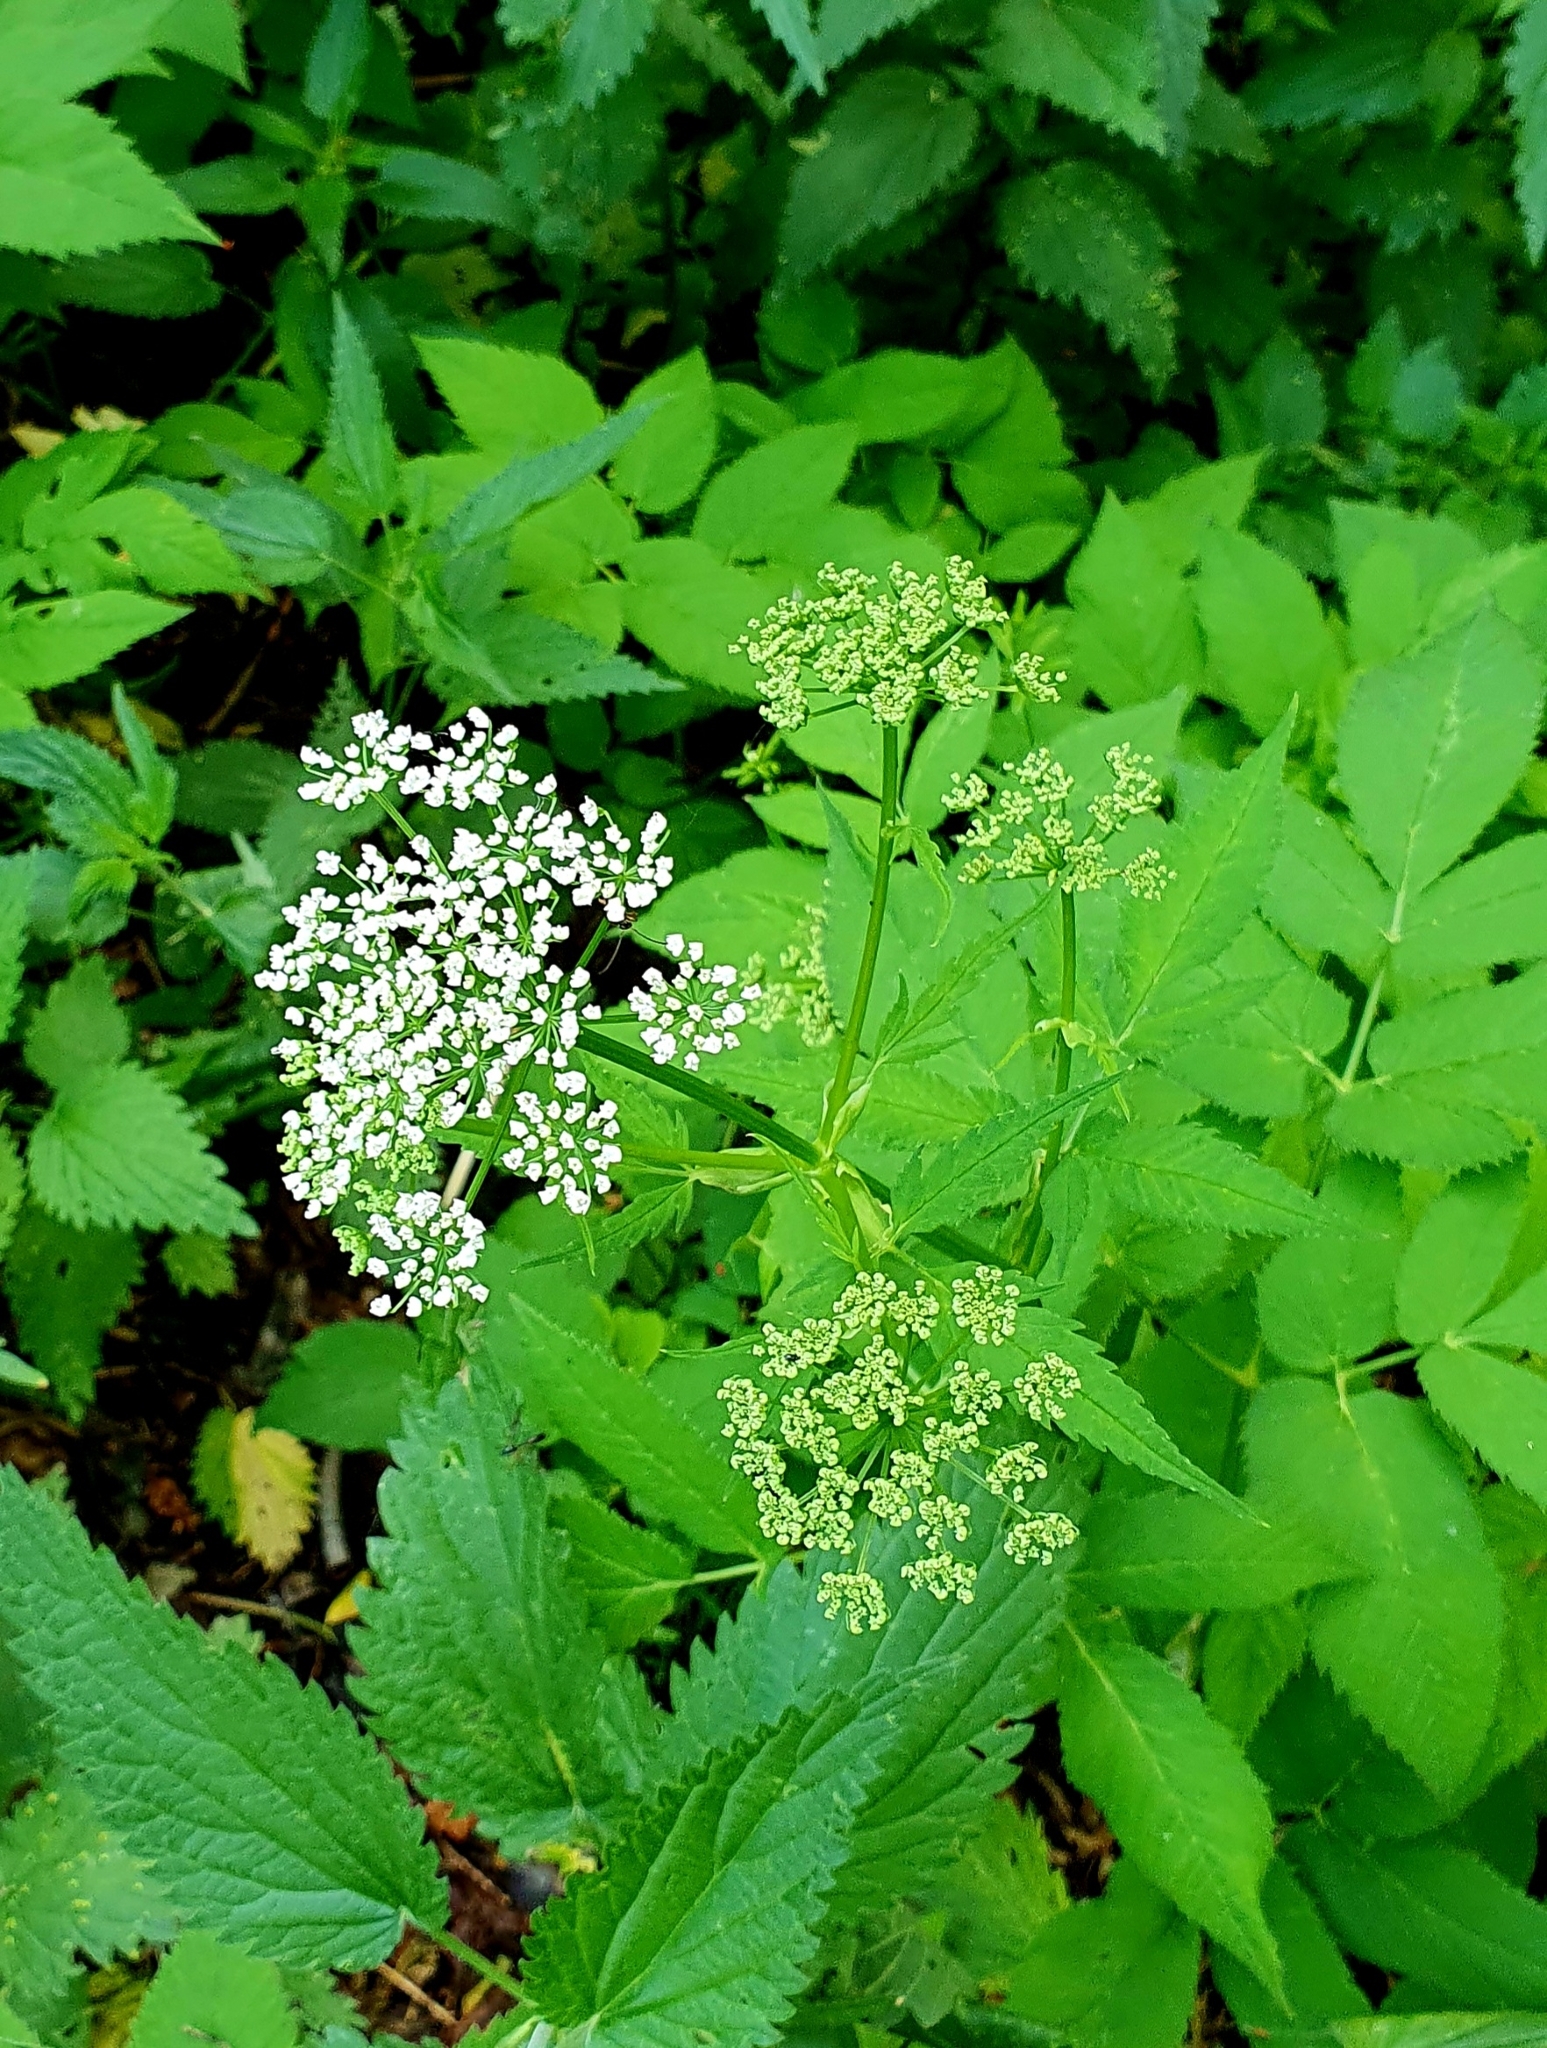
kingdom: Plantae
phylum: Tracheophyta
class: Magnoliopsida
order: Apiales
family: Apiaceae
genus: Aegopodium
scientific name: Aegopodium podagraria
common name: Ground-elder
